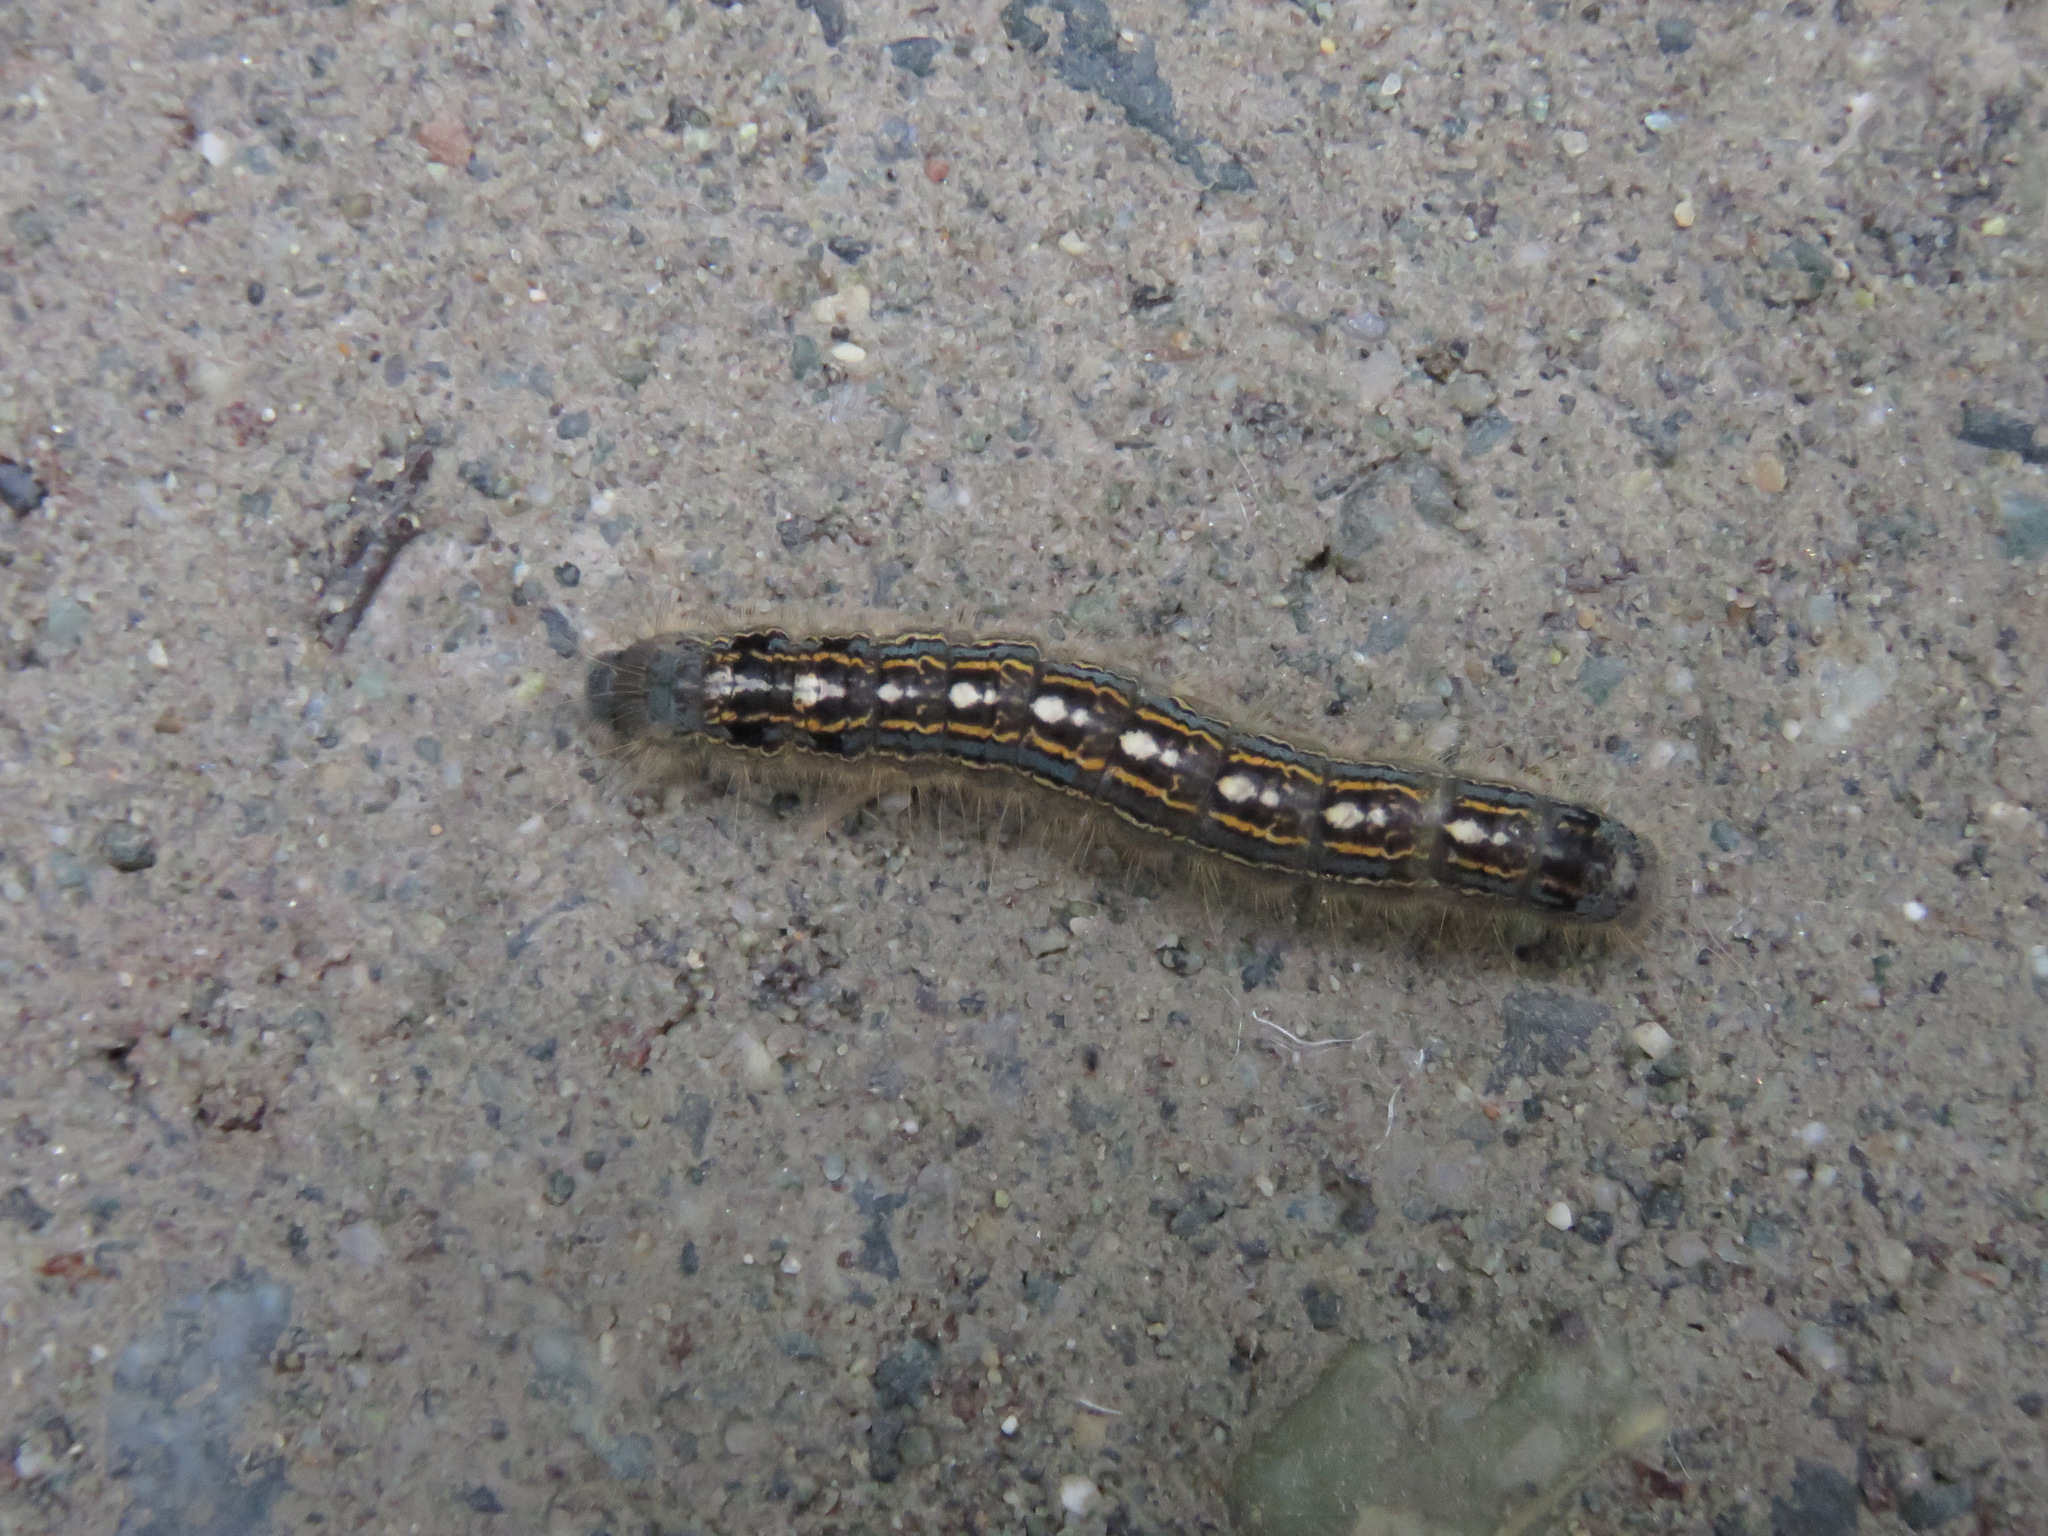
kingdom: Animalia
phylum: Arthropoda
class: Insecta
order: Lepidoptera
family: Lasiocampidae
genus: Malacosoma
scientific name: Malacosoma disstria
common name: Forest tent caterpillar
